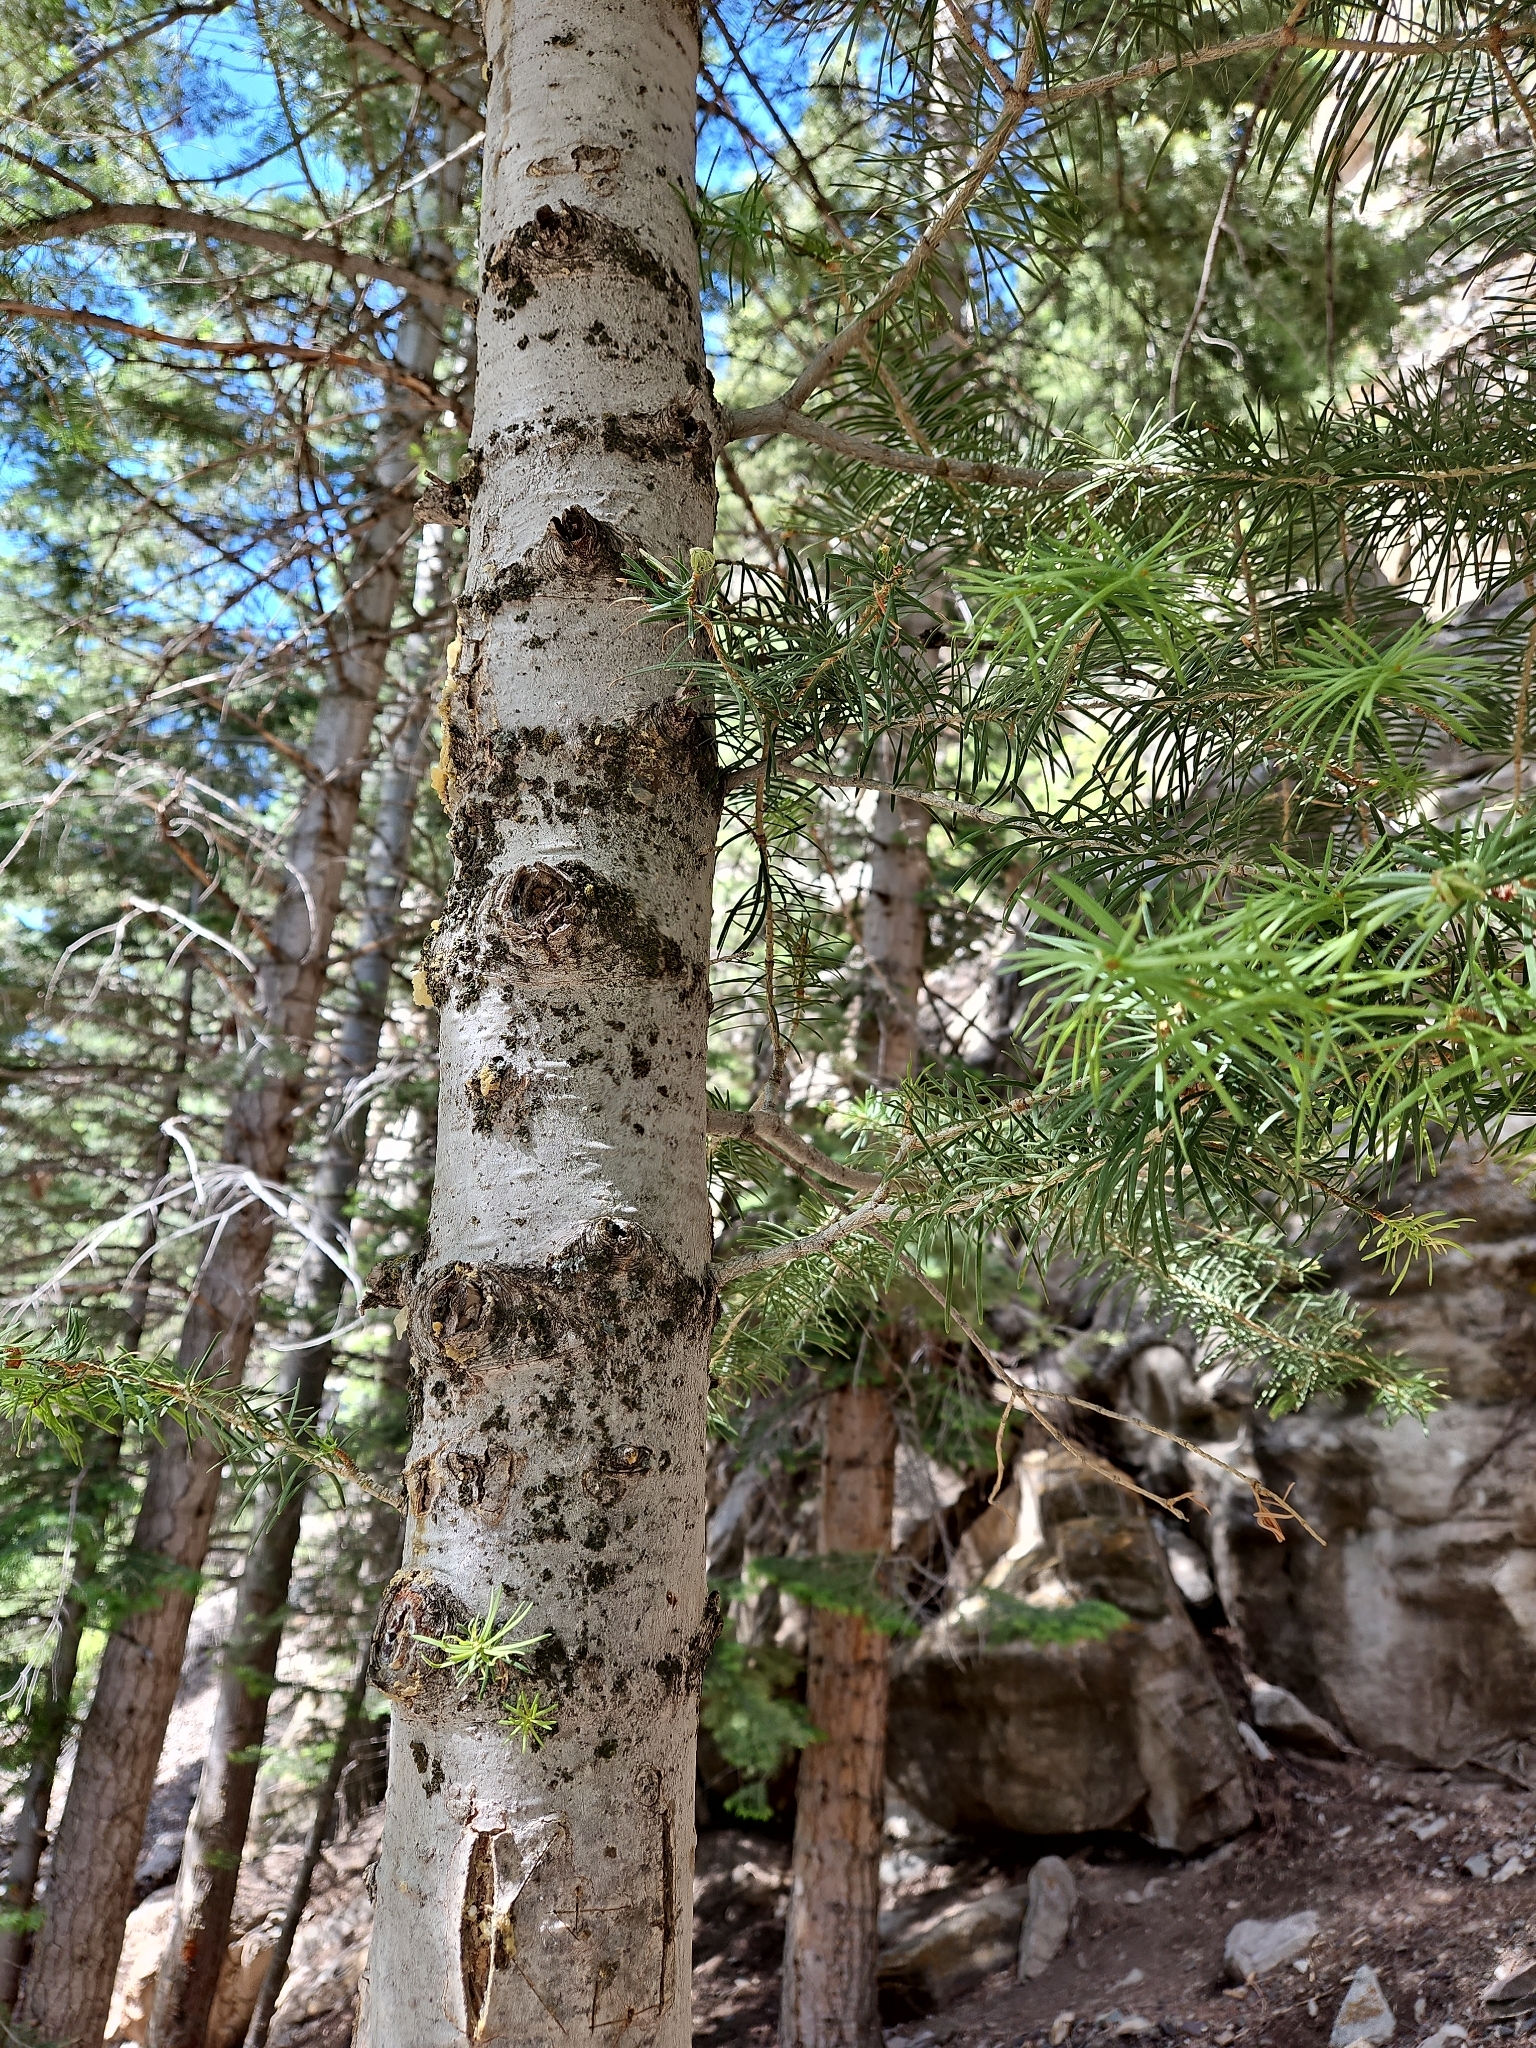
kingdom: Plantae
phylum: Tracheophyta
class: Pinopsida
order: Pinales
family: Pinaceae
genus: Abies
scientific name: Abies concolor
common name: Colorado fir
